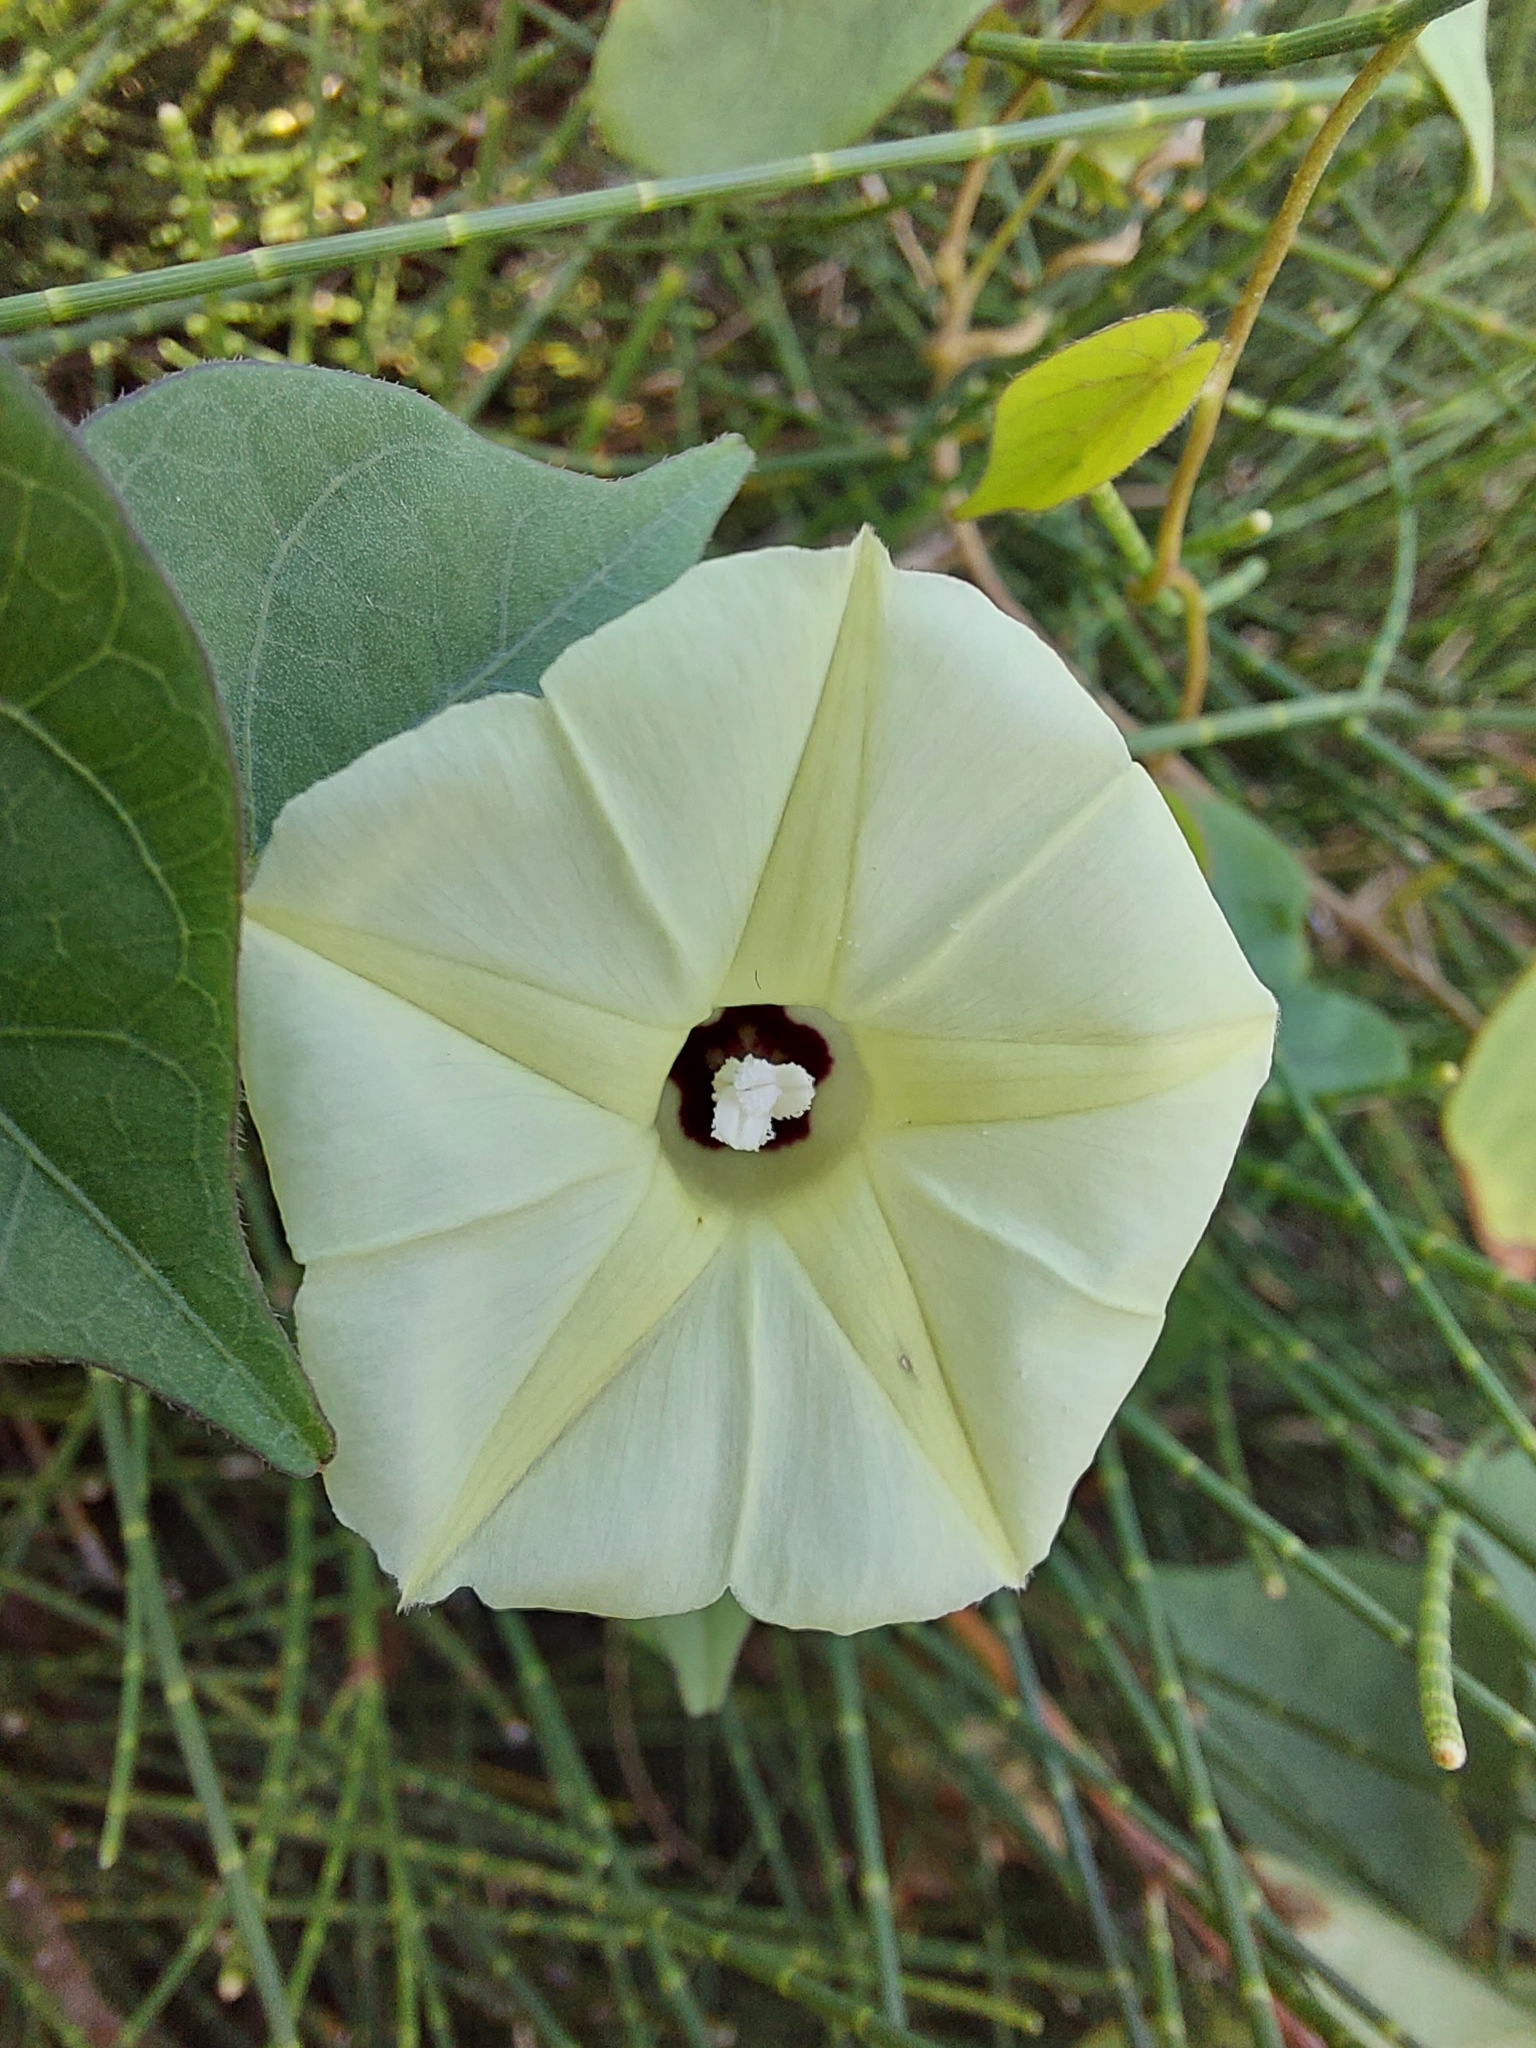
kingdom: Plantae
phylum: Tracheophyta
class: Magnoliopsida
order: Solanales
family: Convolvulaceae
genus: Ipomoea
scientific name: Ipomoea obscura
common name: Obscure morning-glory
